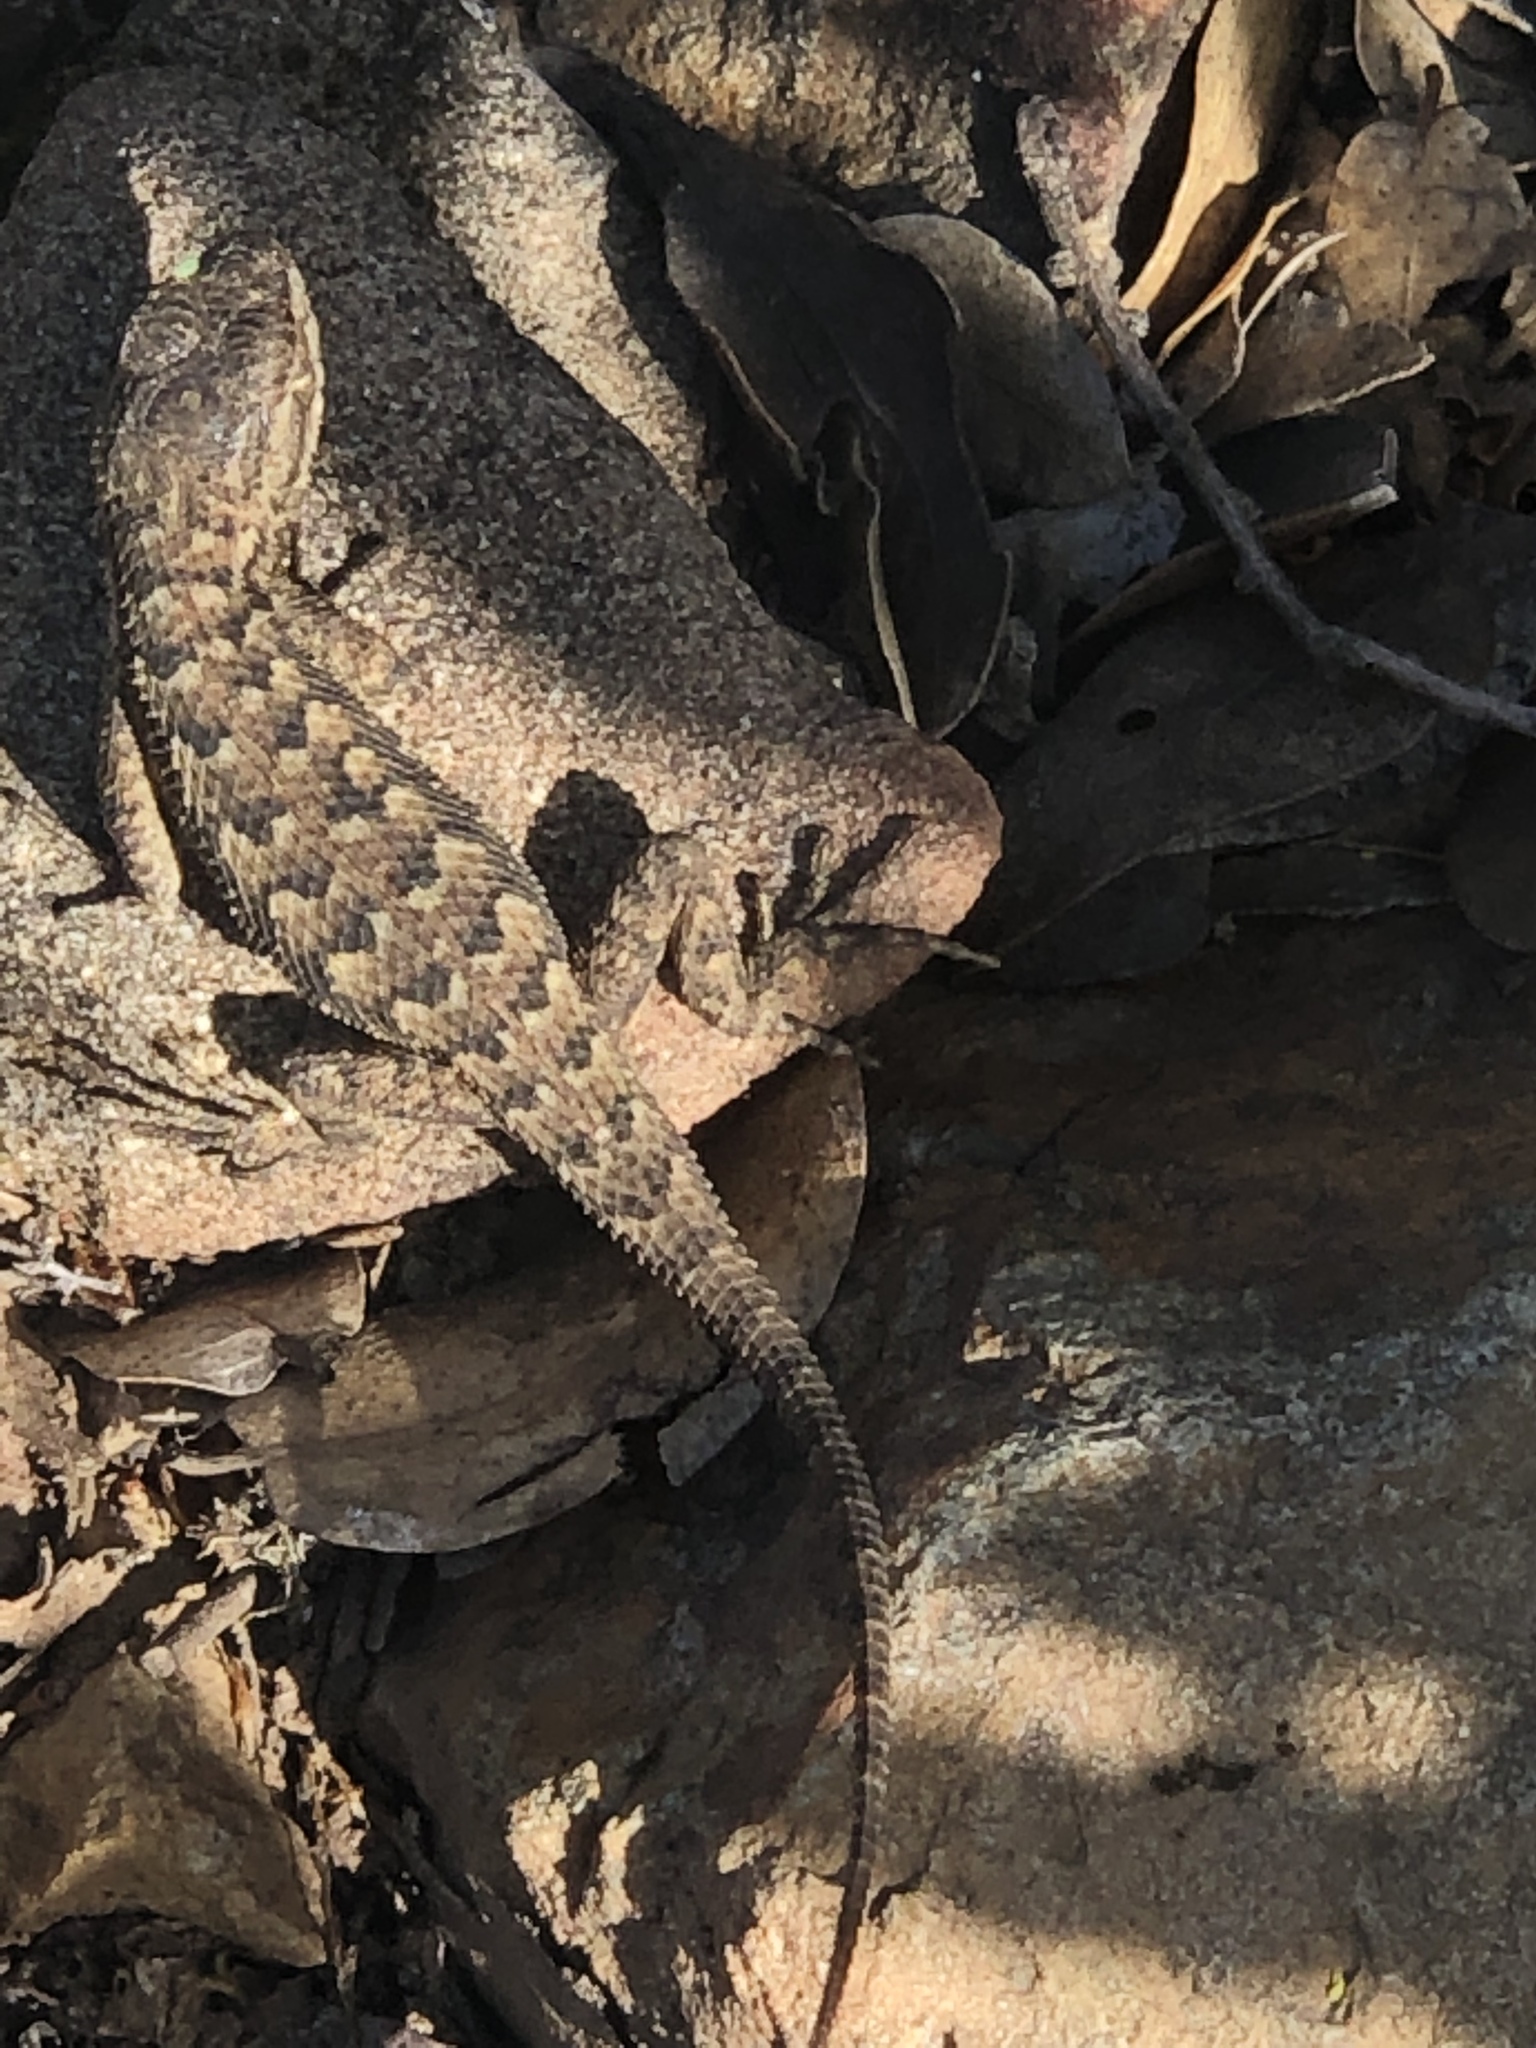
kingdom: Animalia
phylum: Chordata
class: Squamata
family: Phrynosomatidae
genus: Sceloporus
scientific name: Sceloporus occidentalis
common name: Western fence lizard
